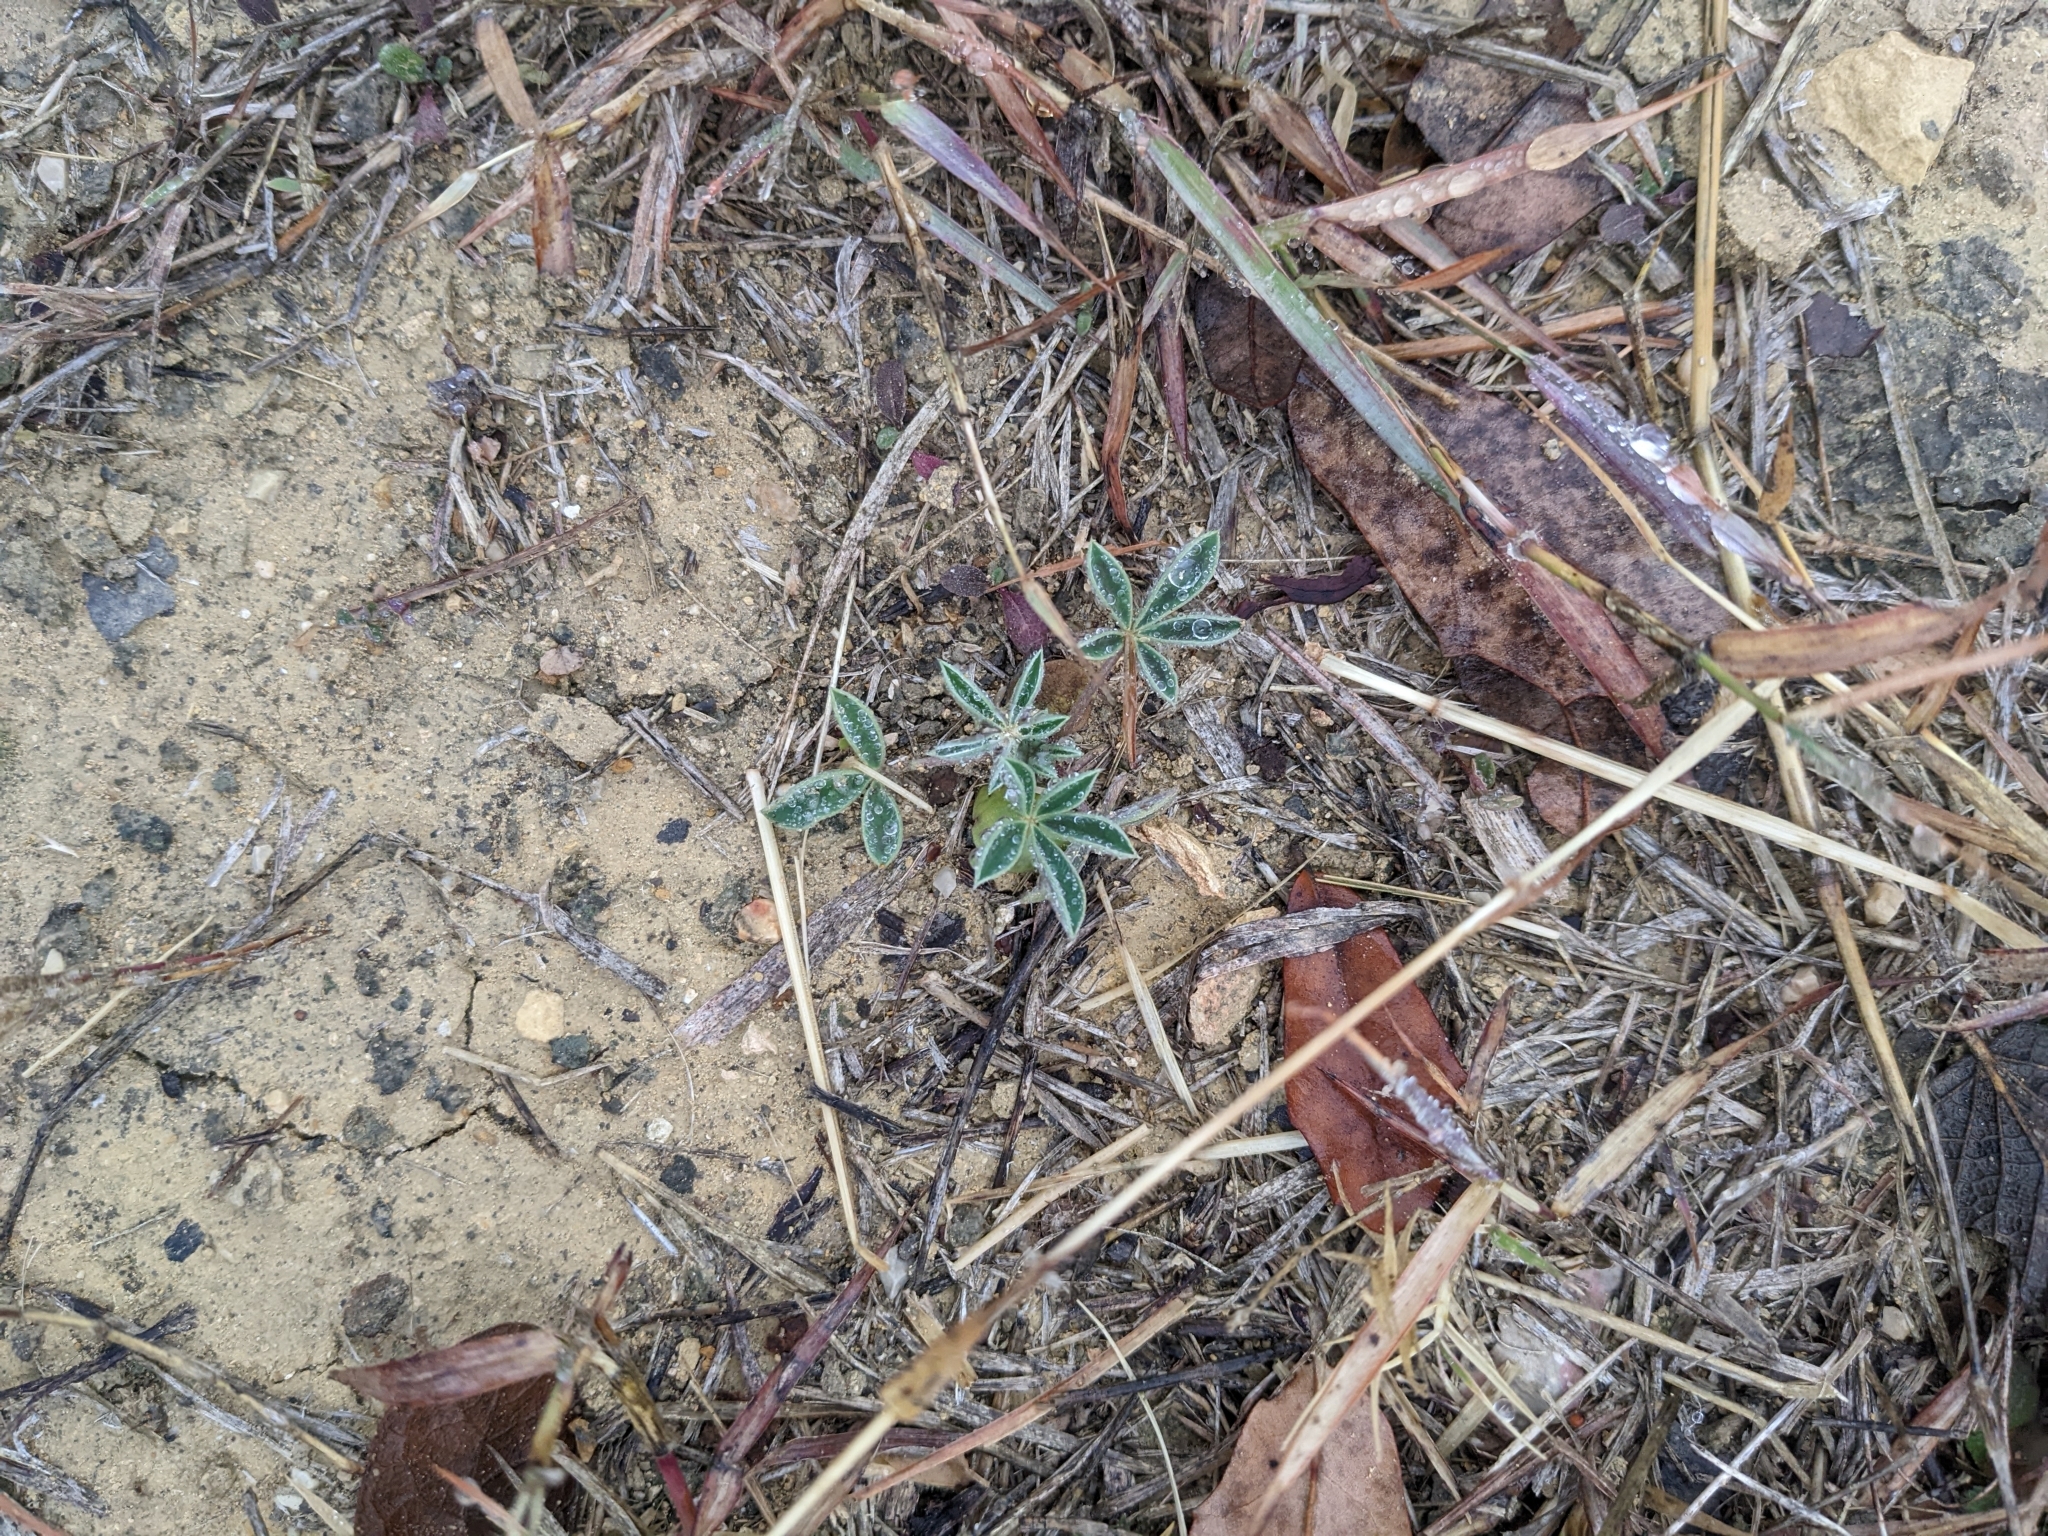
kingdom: Plantae
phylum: Tracheophyta
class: Magnoliopsida
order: Fabales
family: Fabaceae
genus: Lupinus
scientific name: Lupinus texensis
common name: Texas bluebonnet
